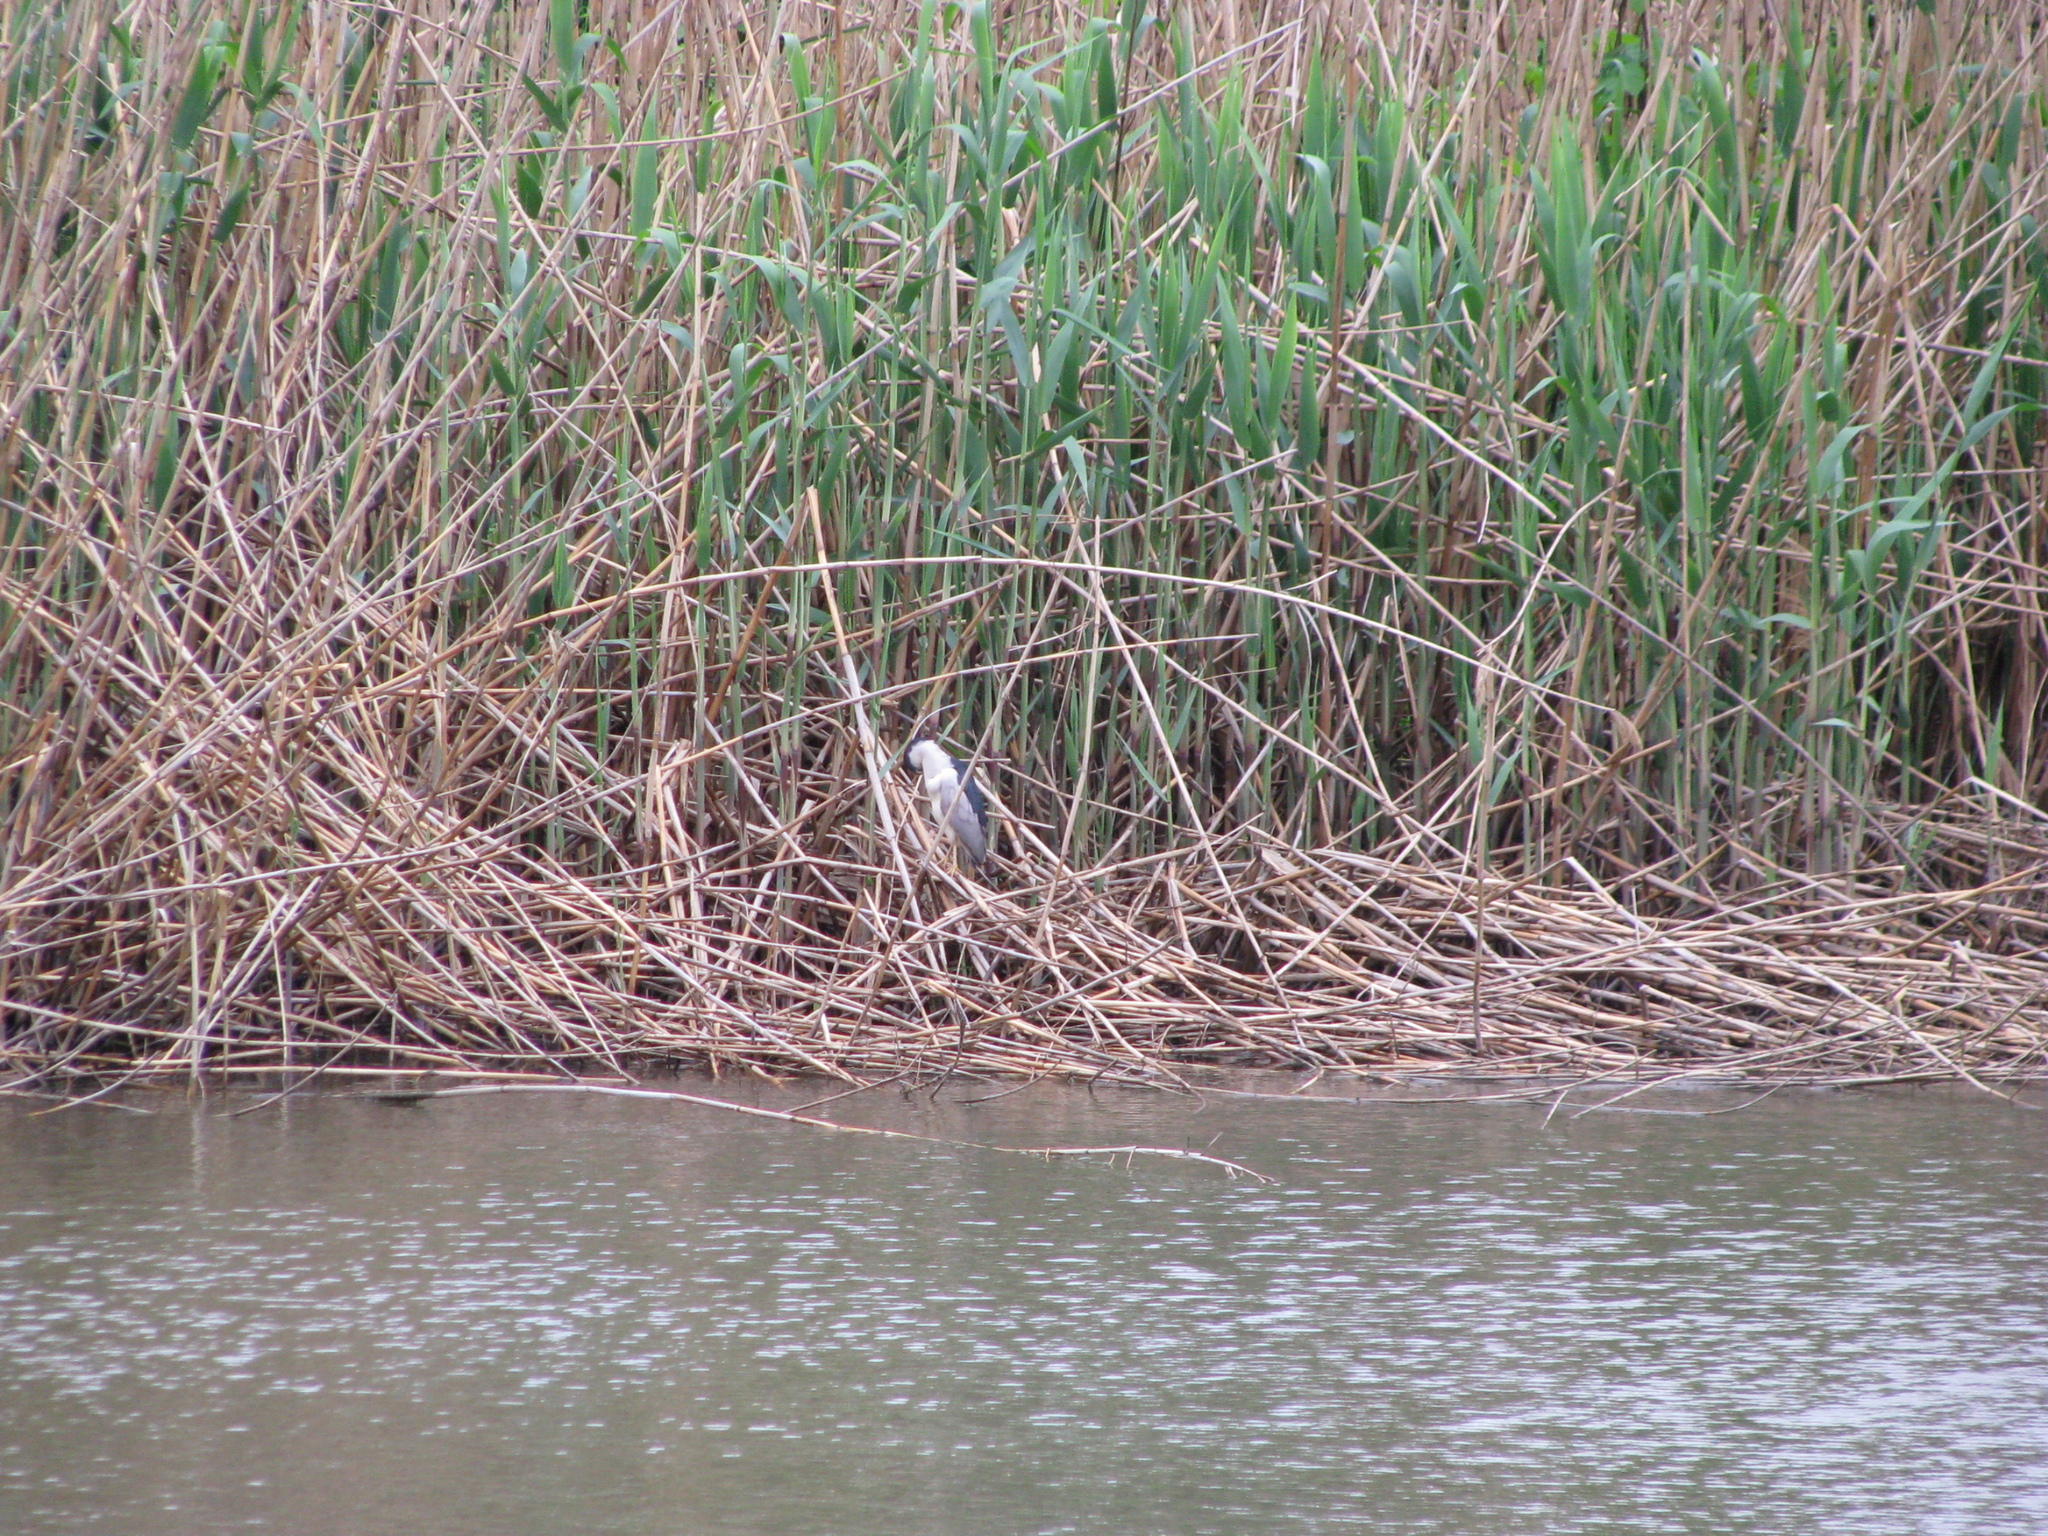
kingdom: Animalia
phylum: Chordata
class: Aves
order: Pelecaniformes
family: Ardeidae
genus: Nycticorax
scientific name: Nycticorax nycticorax
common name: Black-crowned night heron
